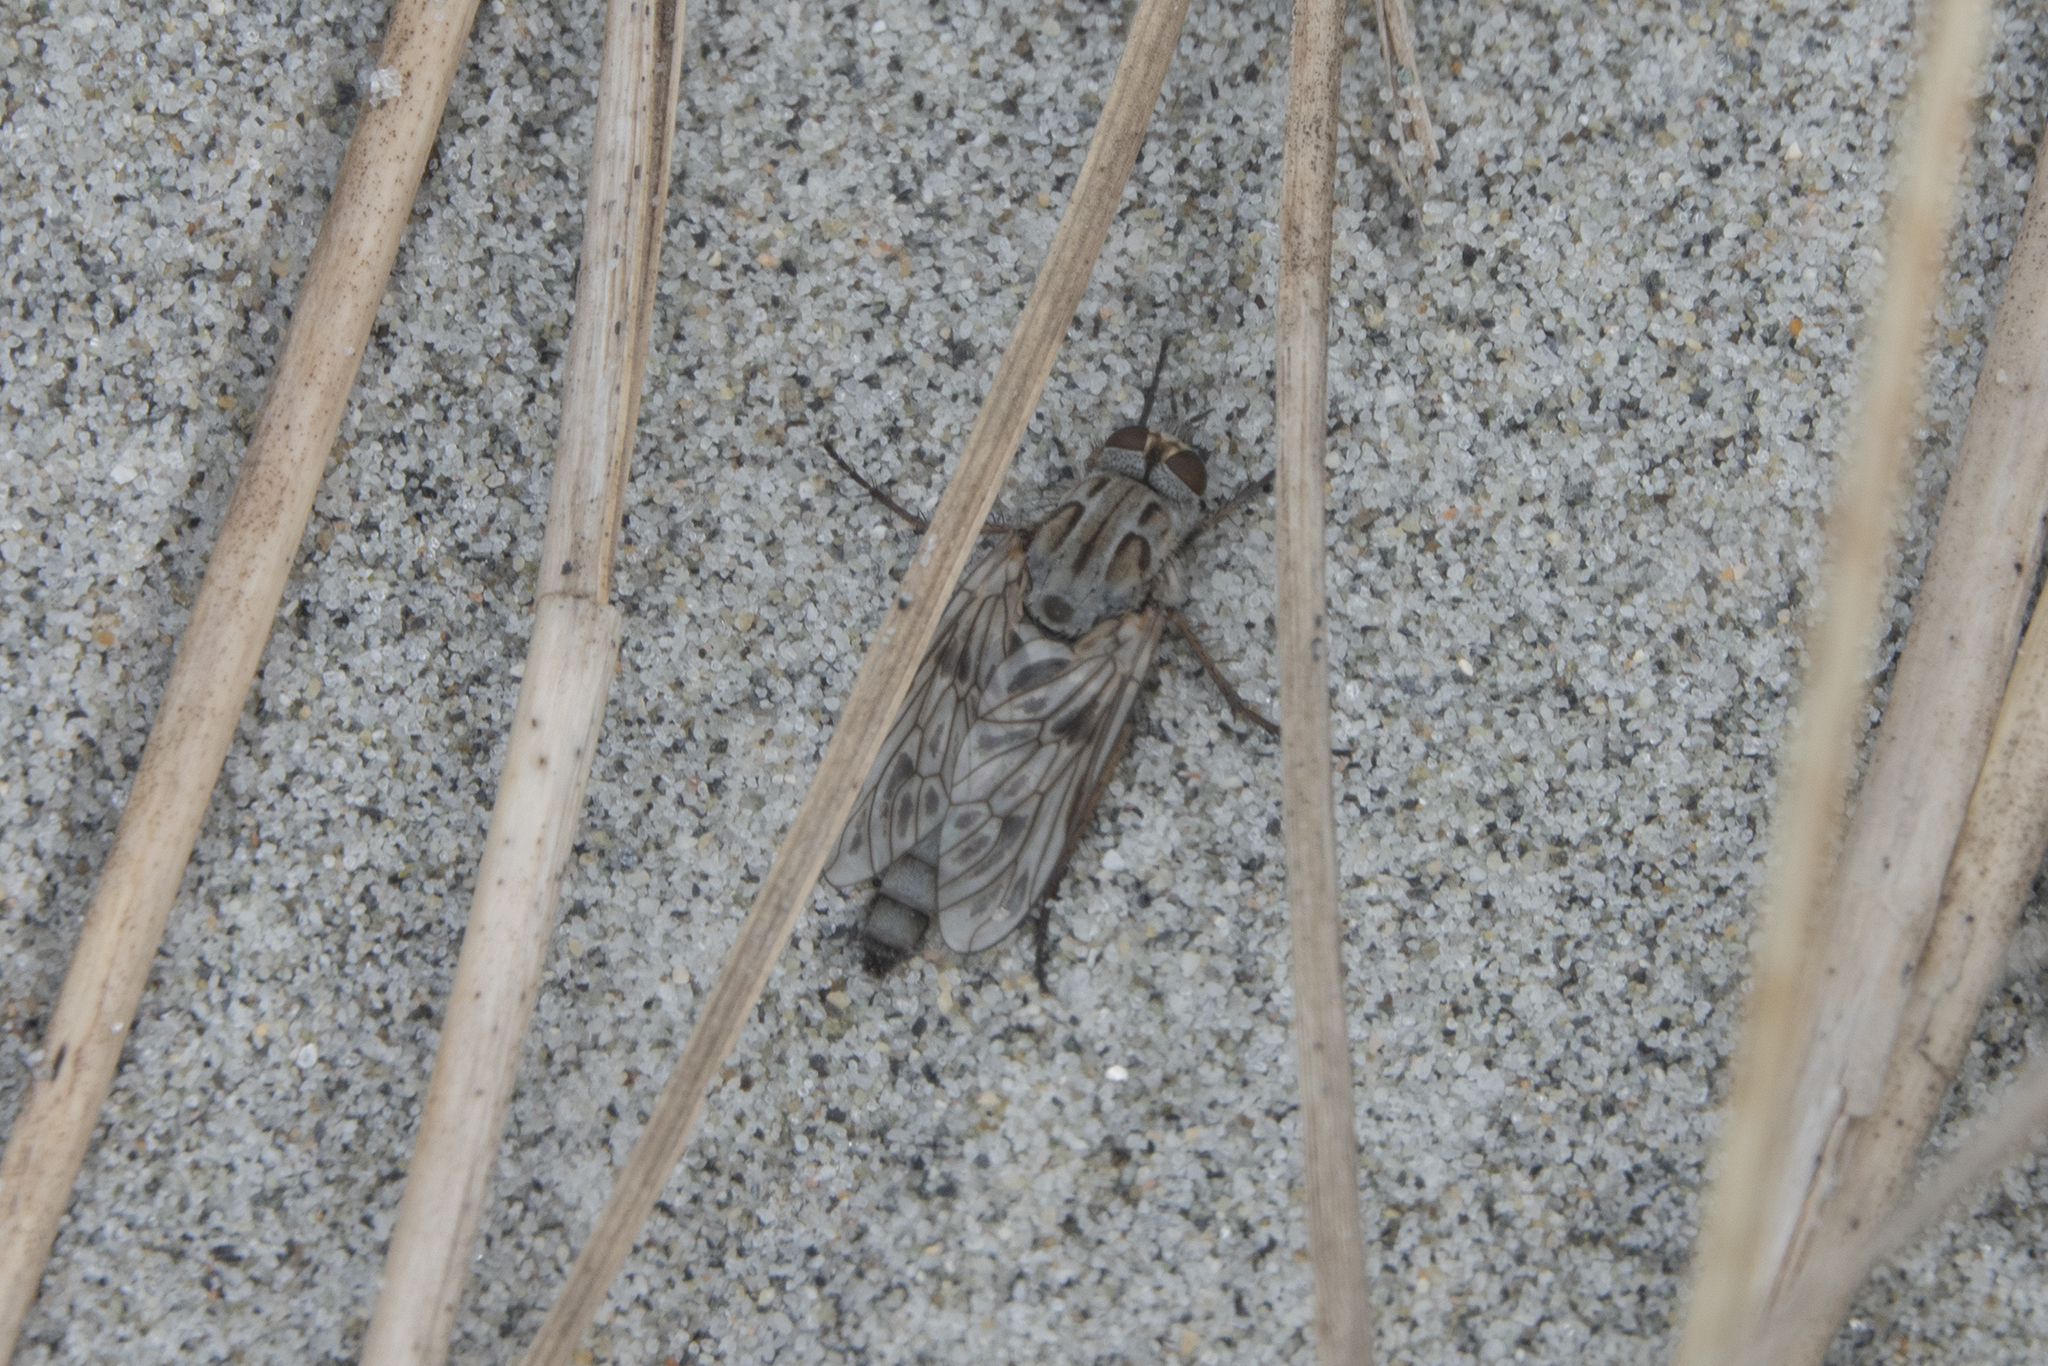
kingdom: Animalia
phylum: Arthropoda
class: Insecta
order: Diptera
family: Therevidae
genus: Anabarhynchus
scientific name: Anabarhynchus nebulosus
